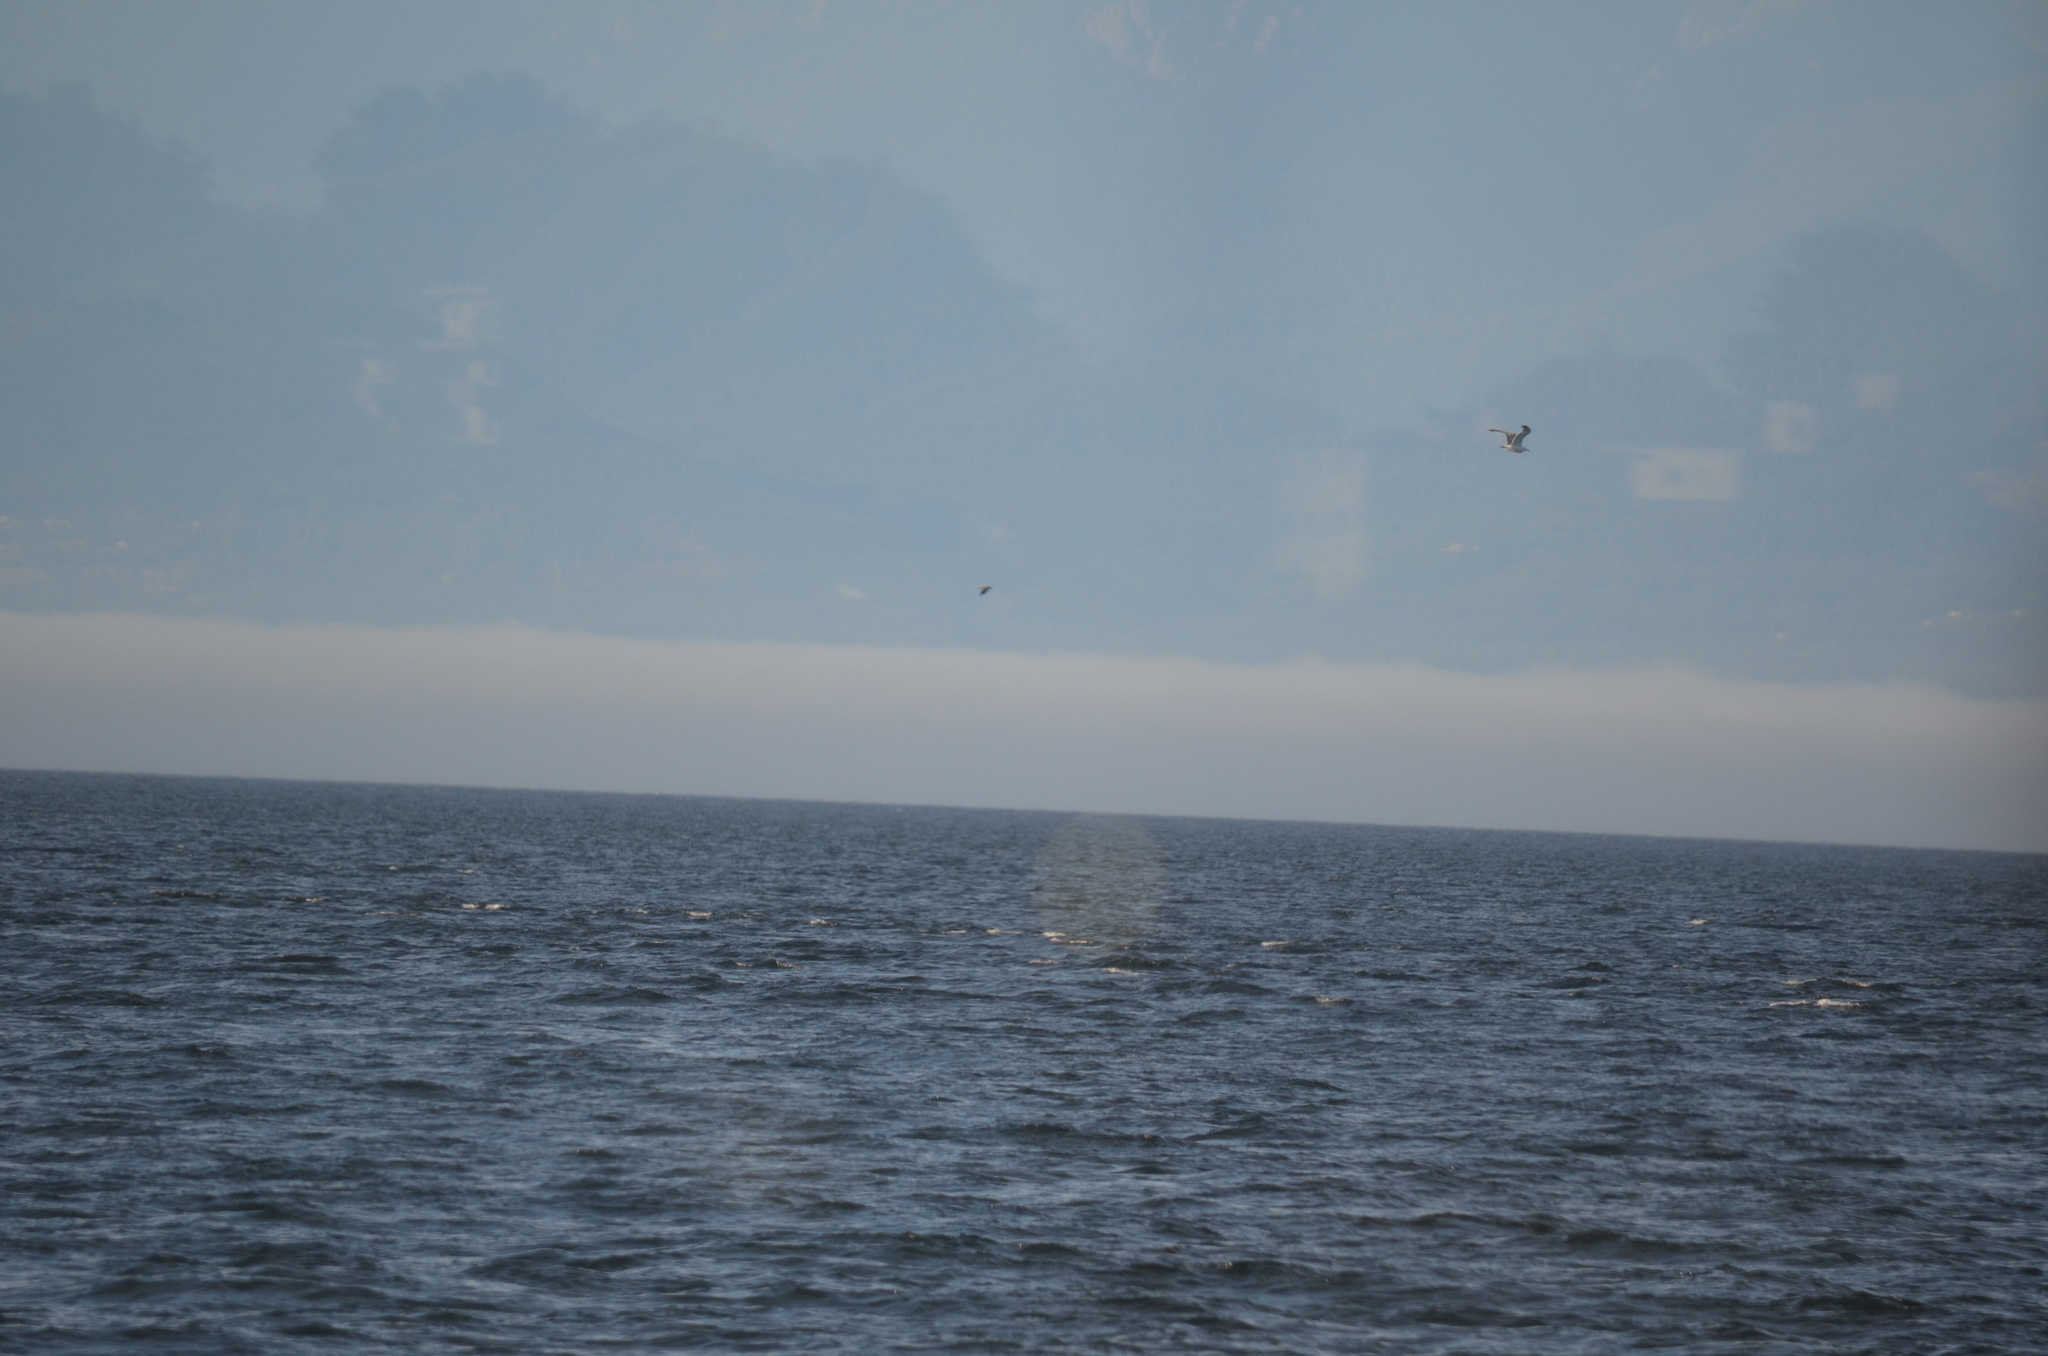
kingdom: Animalia
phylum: Chordata
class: Aves
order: Charadriiformes
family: Laridae
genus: Larus
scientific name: Larus glaucescens
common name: Glaucous-winged gull
